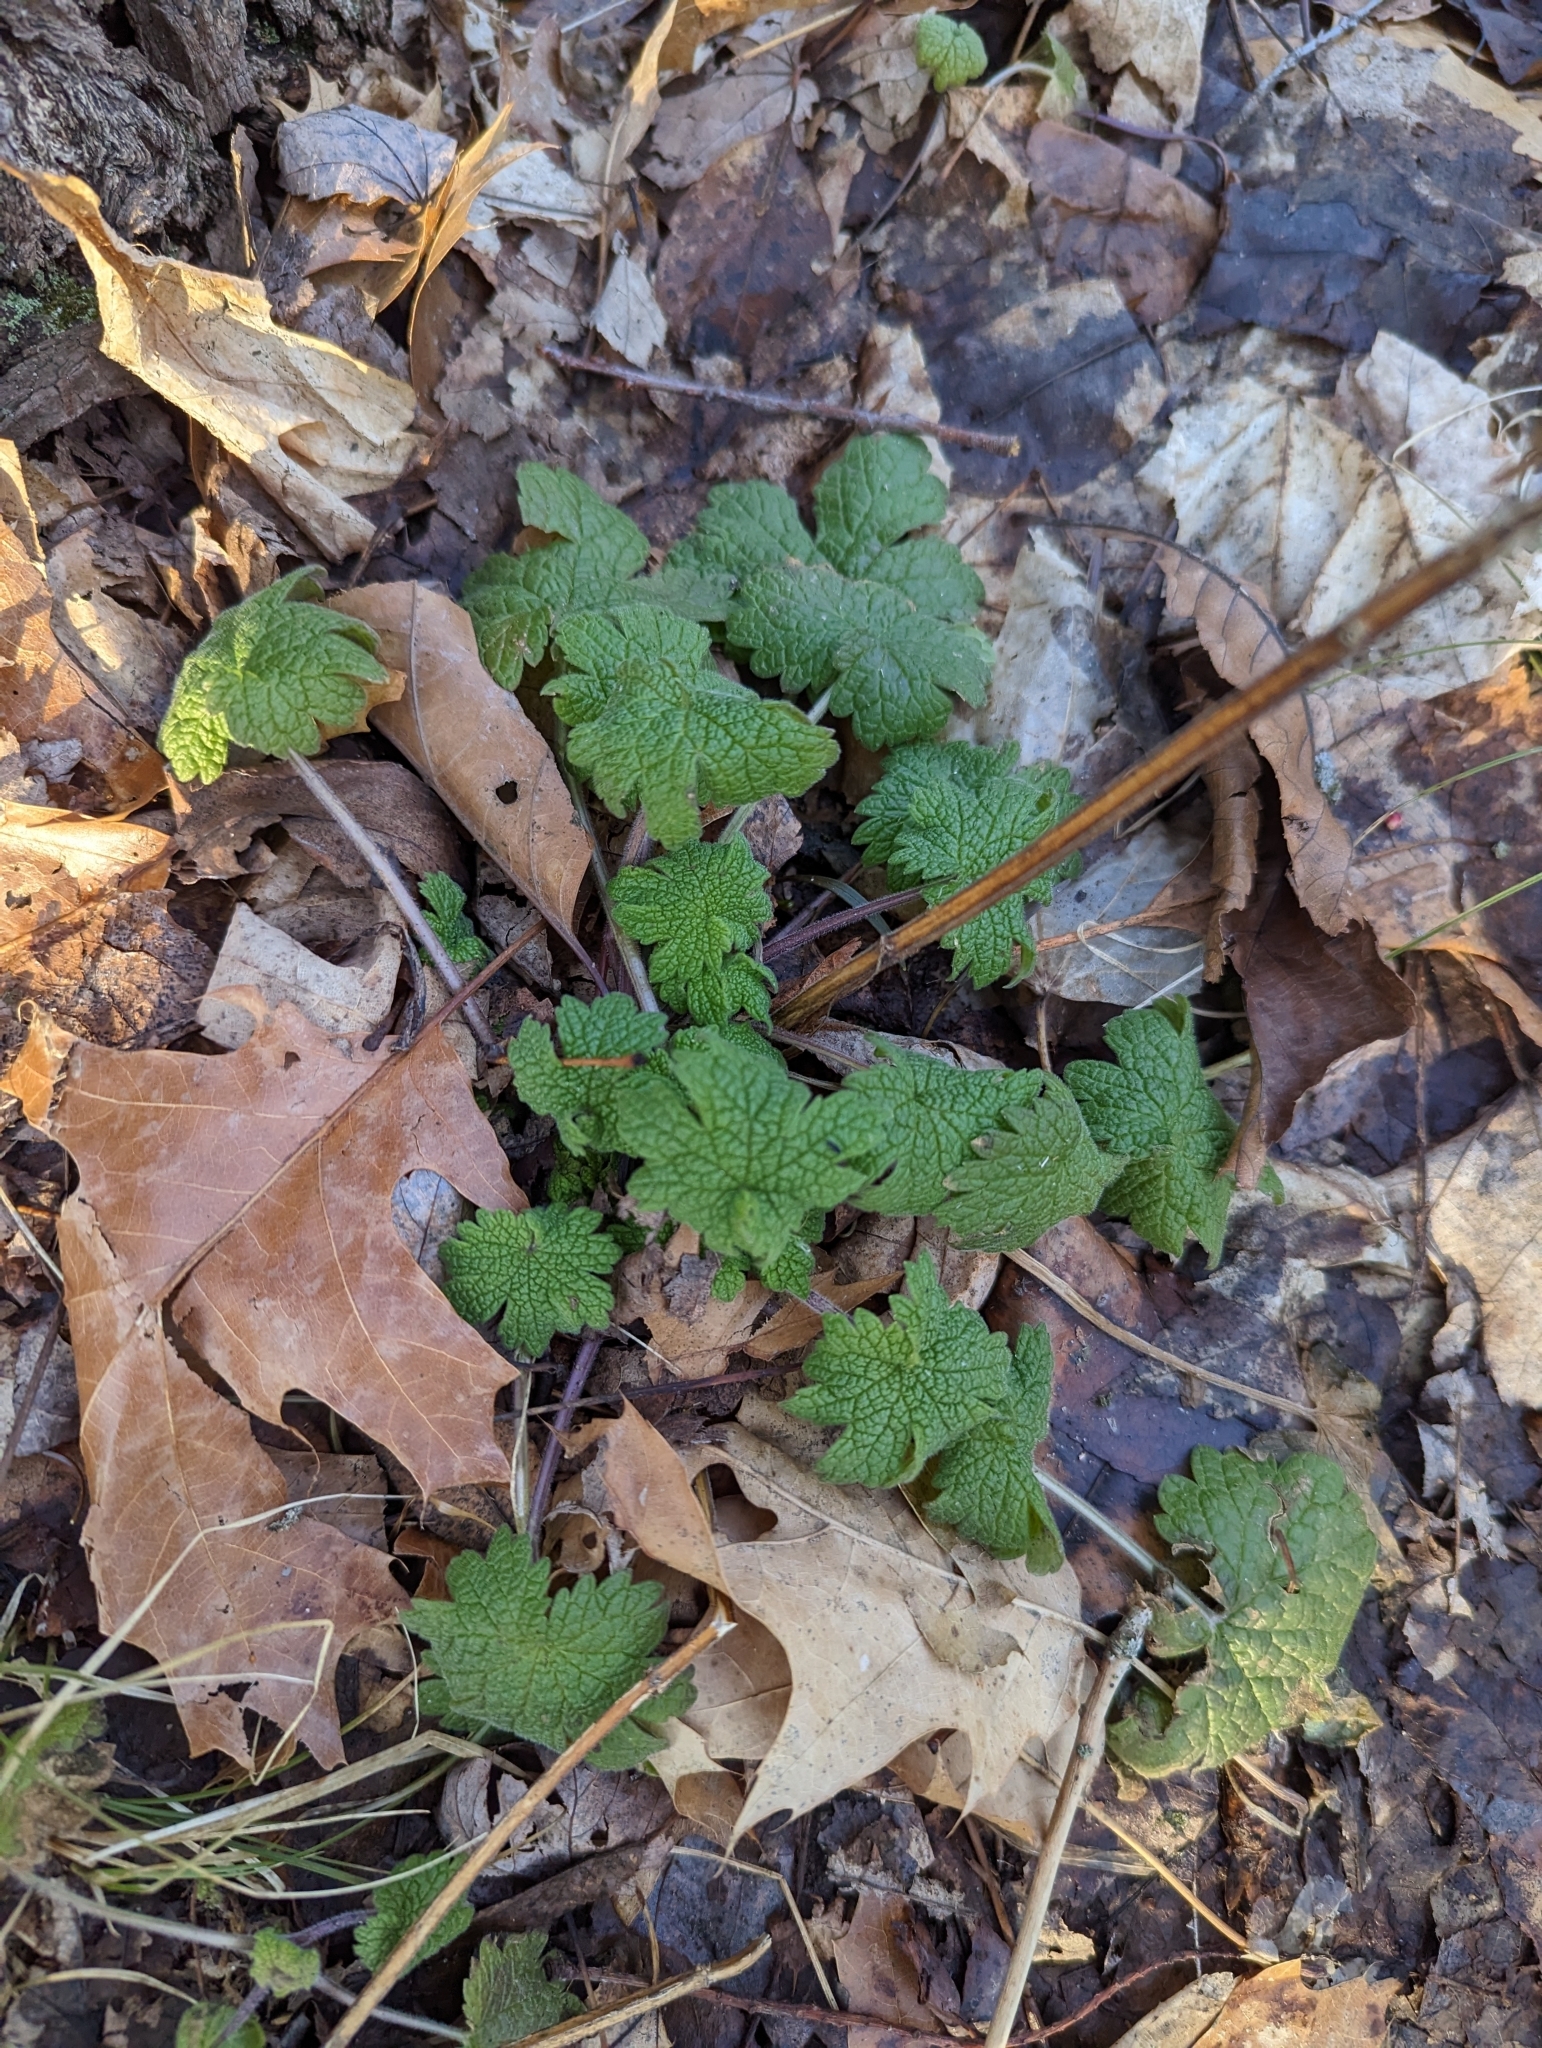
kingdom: Plantae
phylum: Tracheophyta
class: Magnoliopsida
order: Lamiales
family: Lamiaceae
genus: Leonurus
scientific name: Leonurus cardiaca
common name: Motherwort
